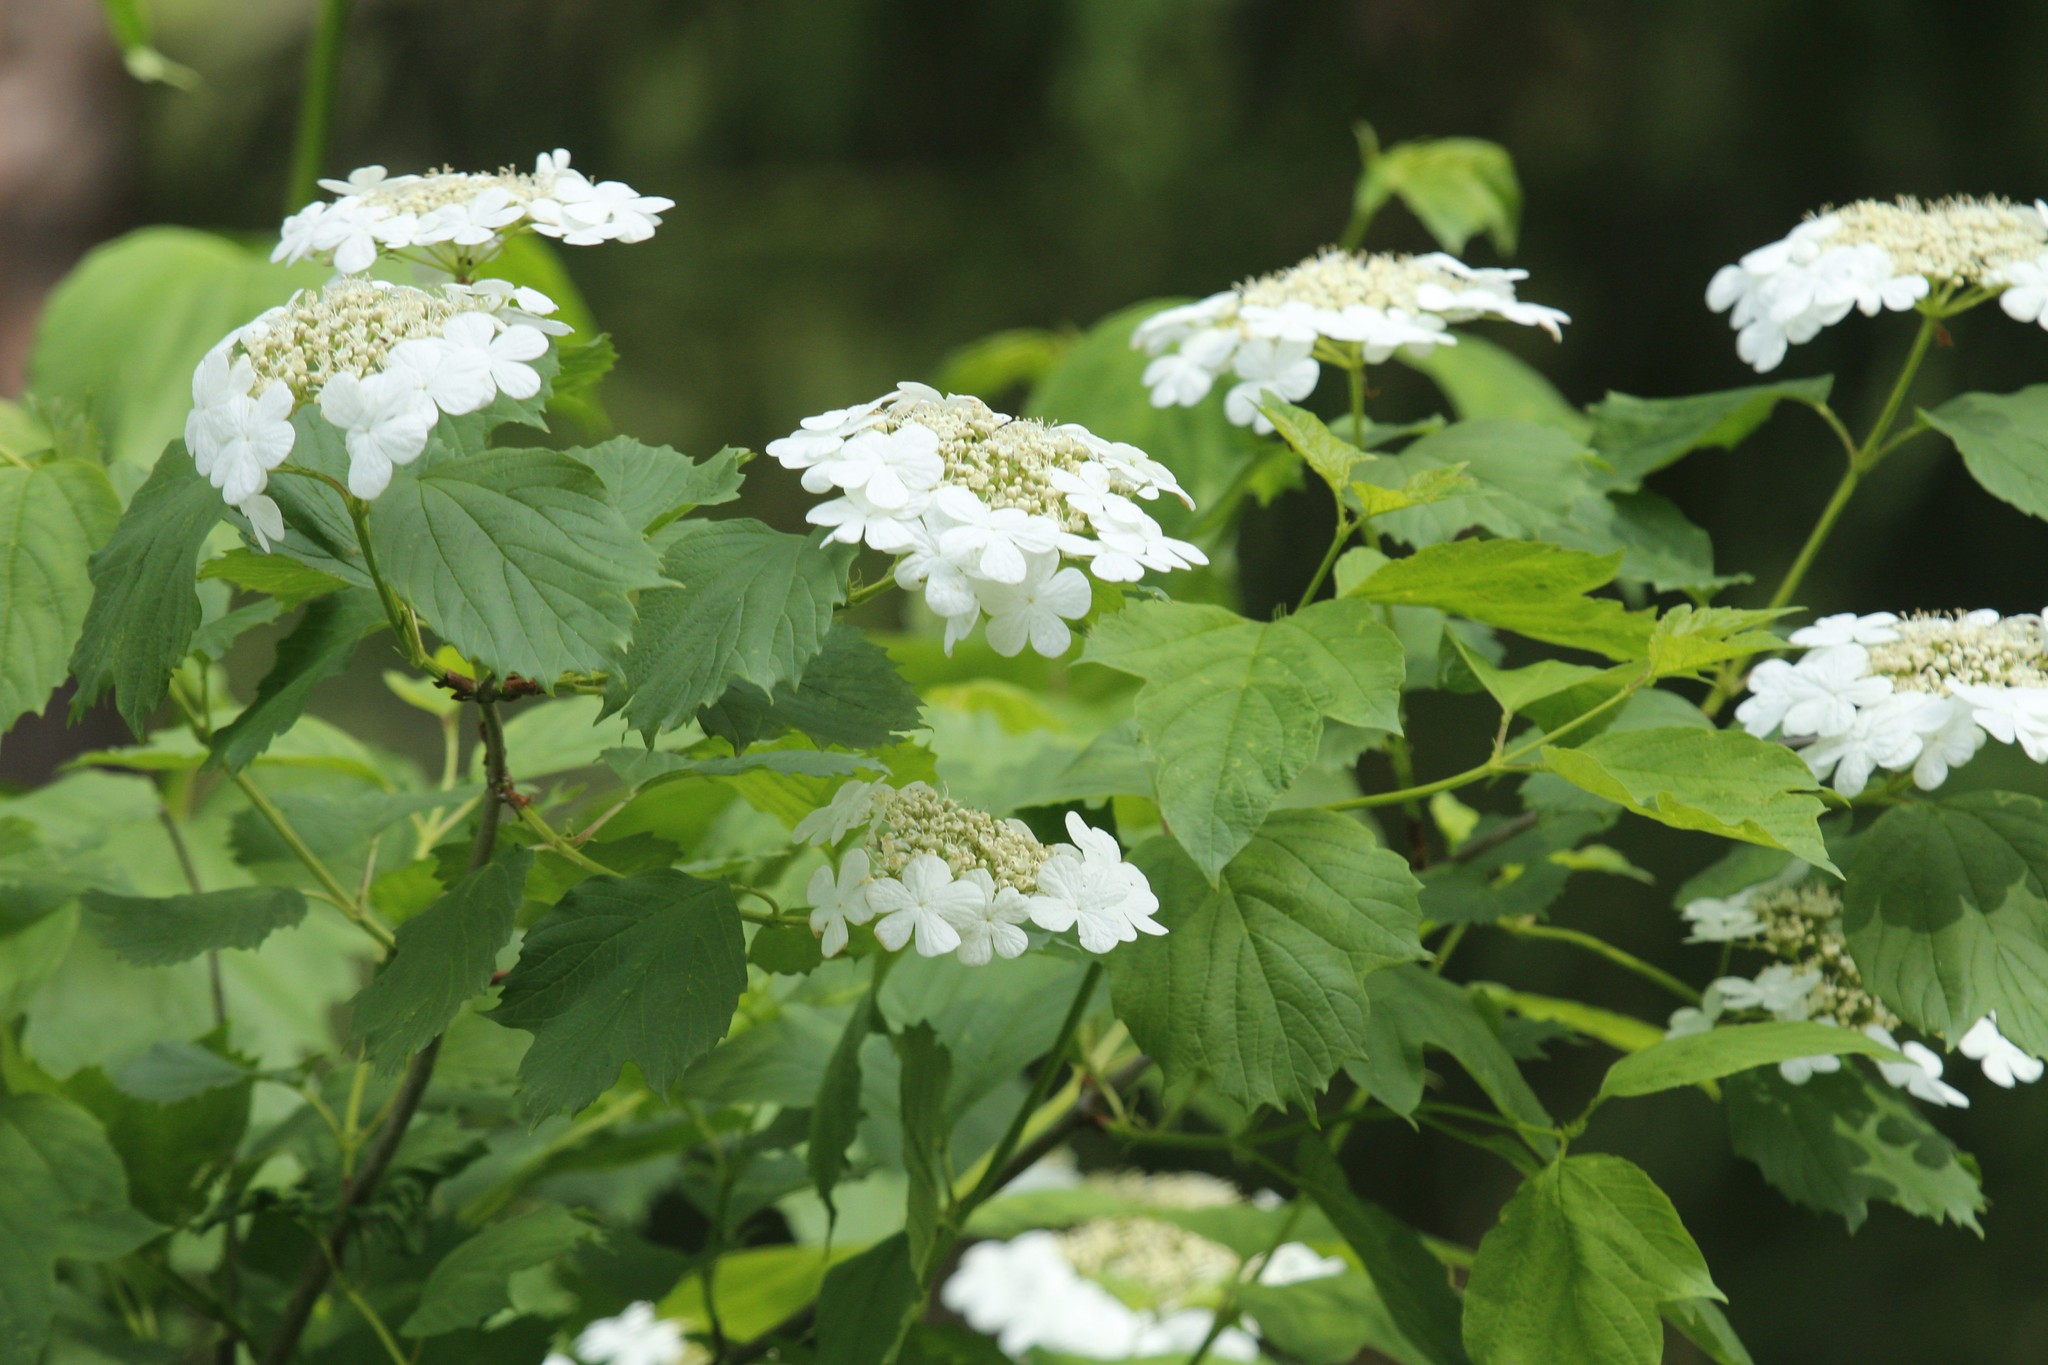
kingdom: Plantae
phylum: Tracheophyta
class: Magnoliopsida
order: Dipsacales
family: Viburnaceae
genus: Viburnum
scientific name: Viburnum opulus
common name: Guelder-rose
